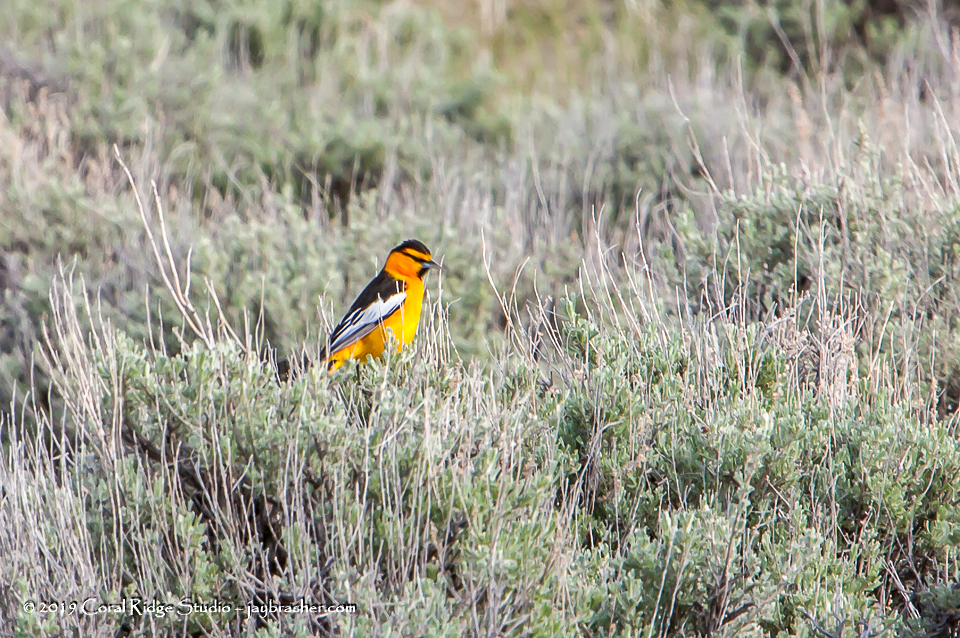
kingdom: Animalia
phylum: Chordata
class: Aves
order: Passeriformes
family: Icteridae
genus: Icterus
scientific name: Icterus bullockii
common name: Bullock's oriole
